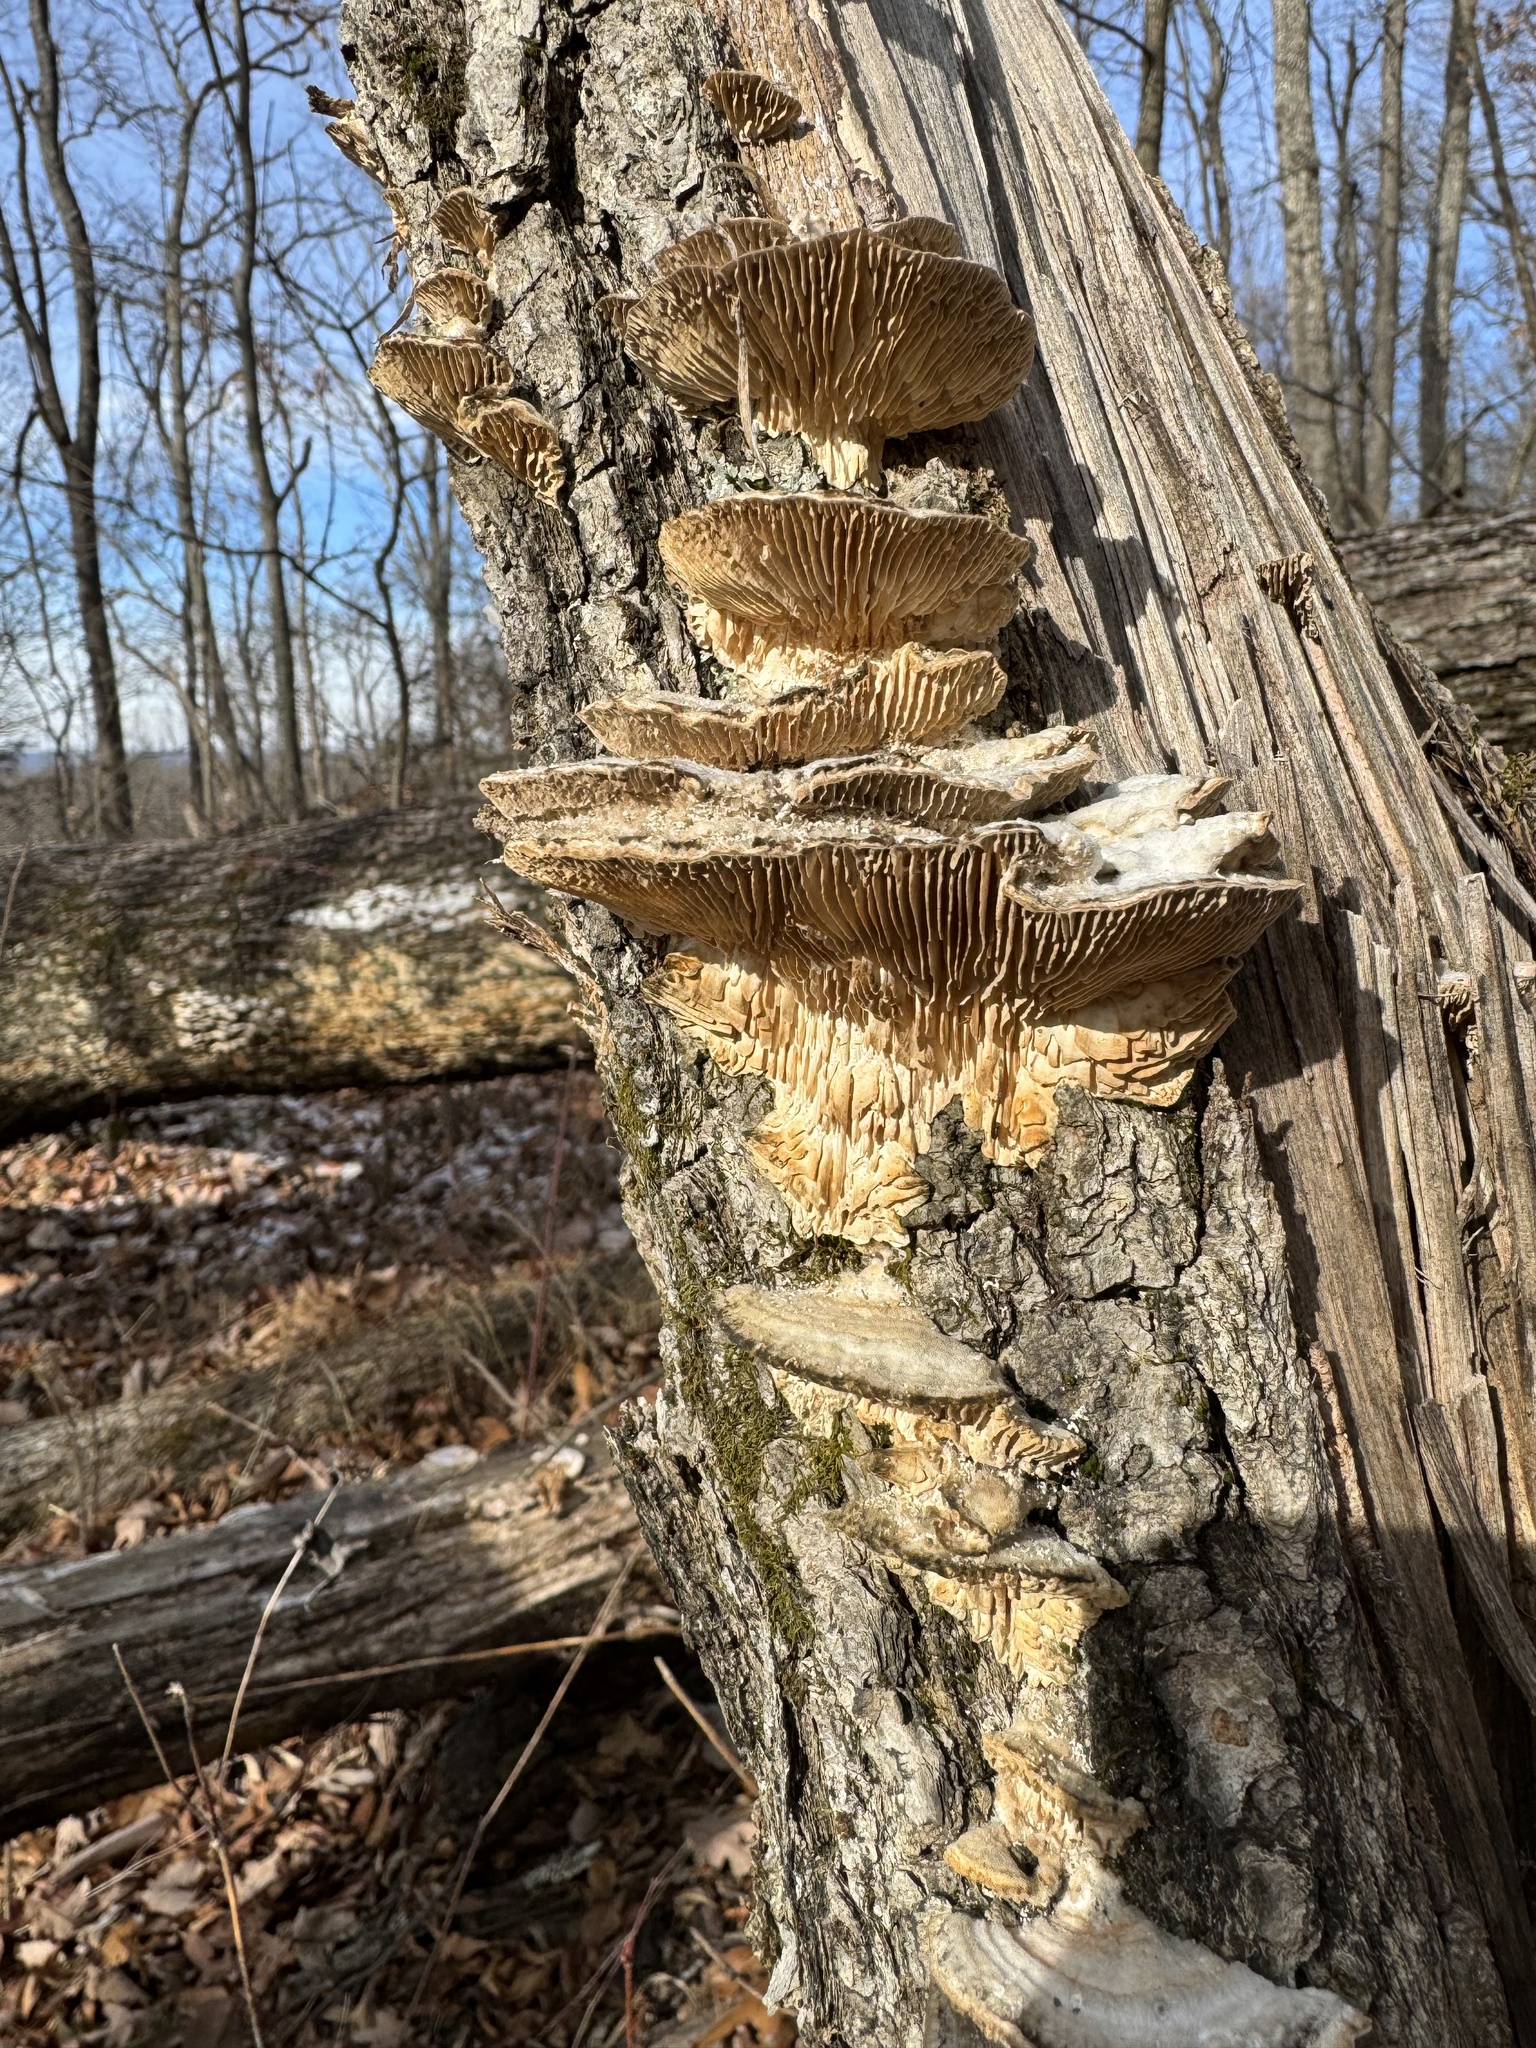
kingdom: Fungi
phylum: Basidiomycota
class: Agaricomycetes
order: Polyporales
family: Polyporaceae
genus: Lenzites
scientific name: Lenzites betulinus
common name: Birch mazegill
